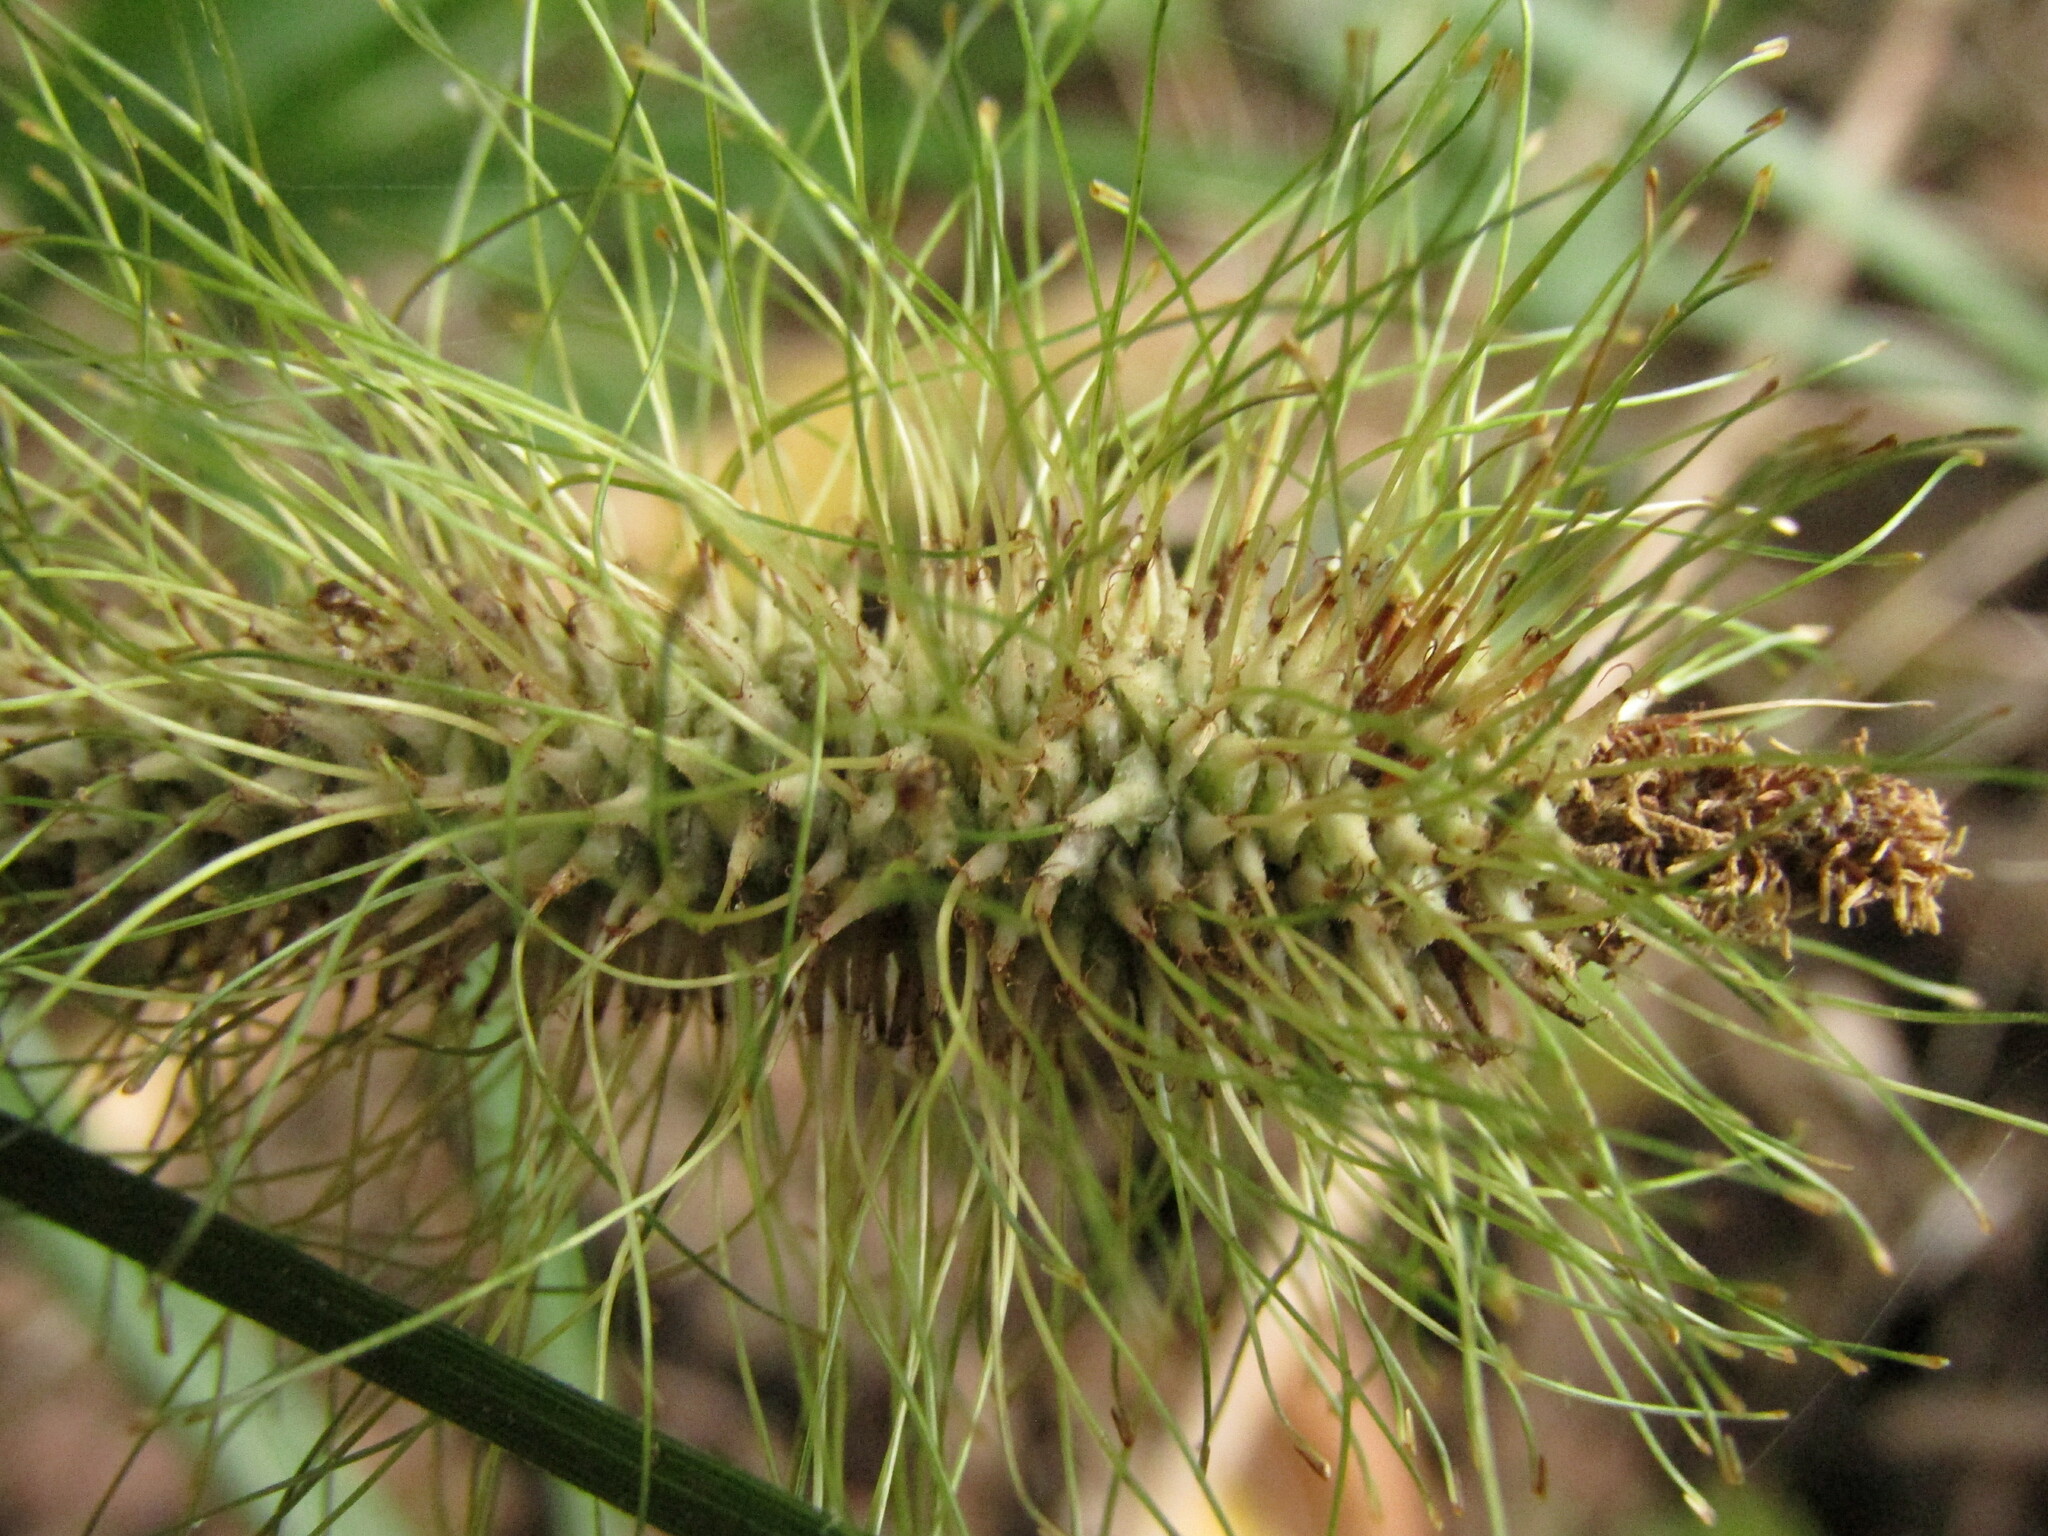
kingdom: Plantae
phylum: Tracheophyta
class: Liliopsida
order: Poales
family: Cyperaceae
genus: Carex
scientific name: Carex erinacea
